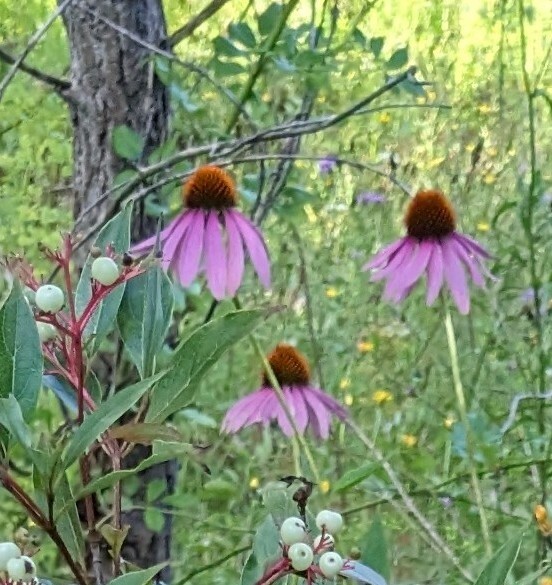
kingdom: Plantae
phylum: Tracheophyta
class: Magnoliopsida
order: Asterales
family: Asteraceae
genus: Echinacea
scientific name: Echinacea purpurea
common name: Broad-leaved purple coneflower
